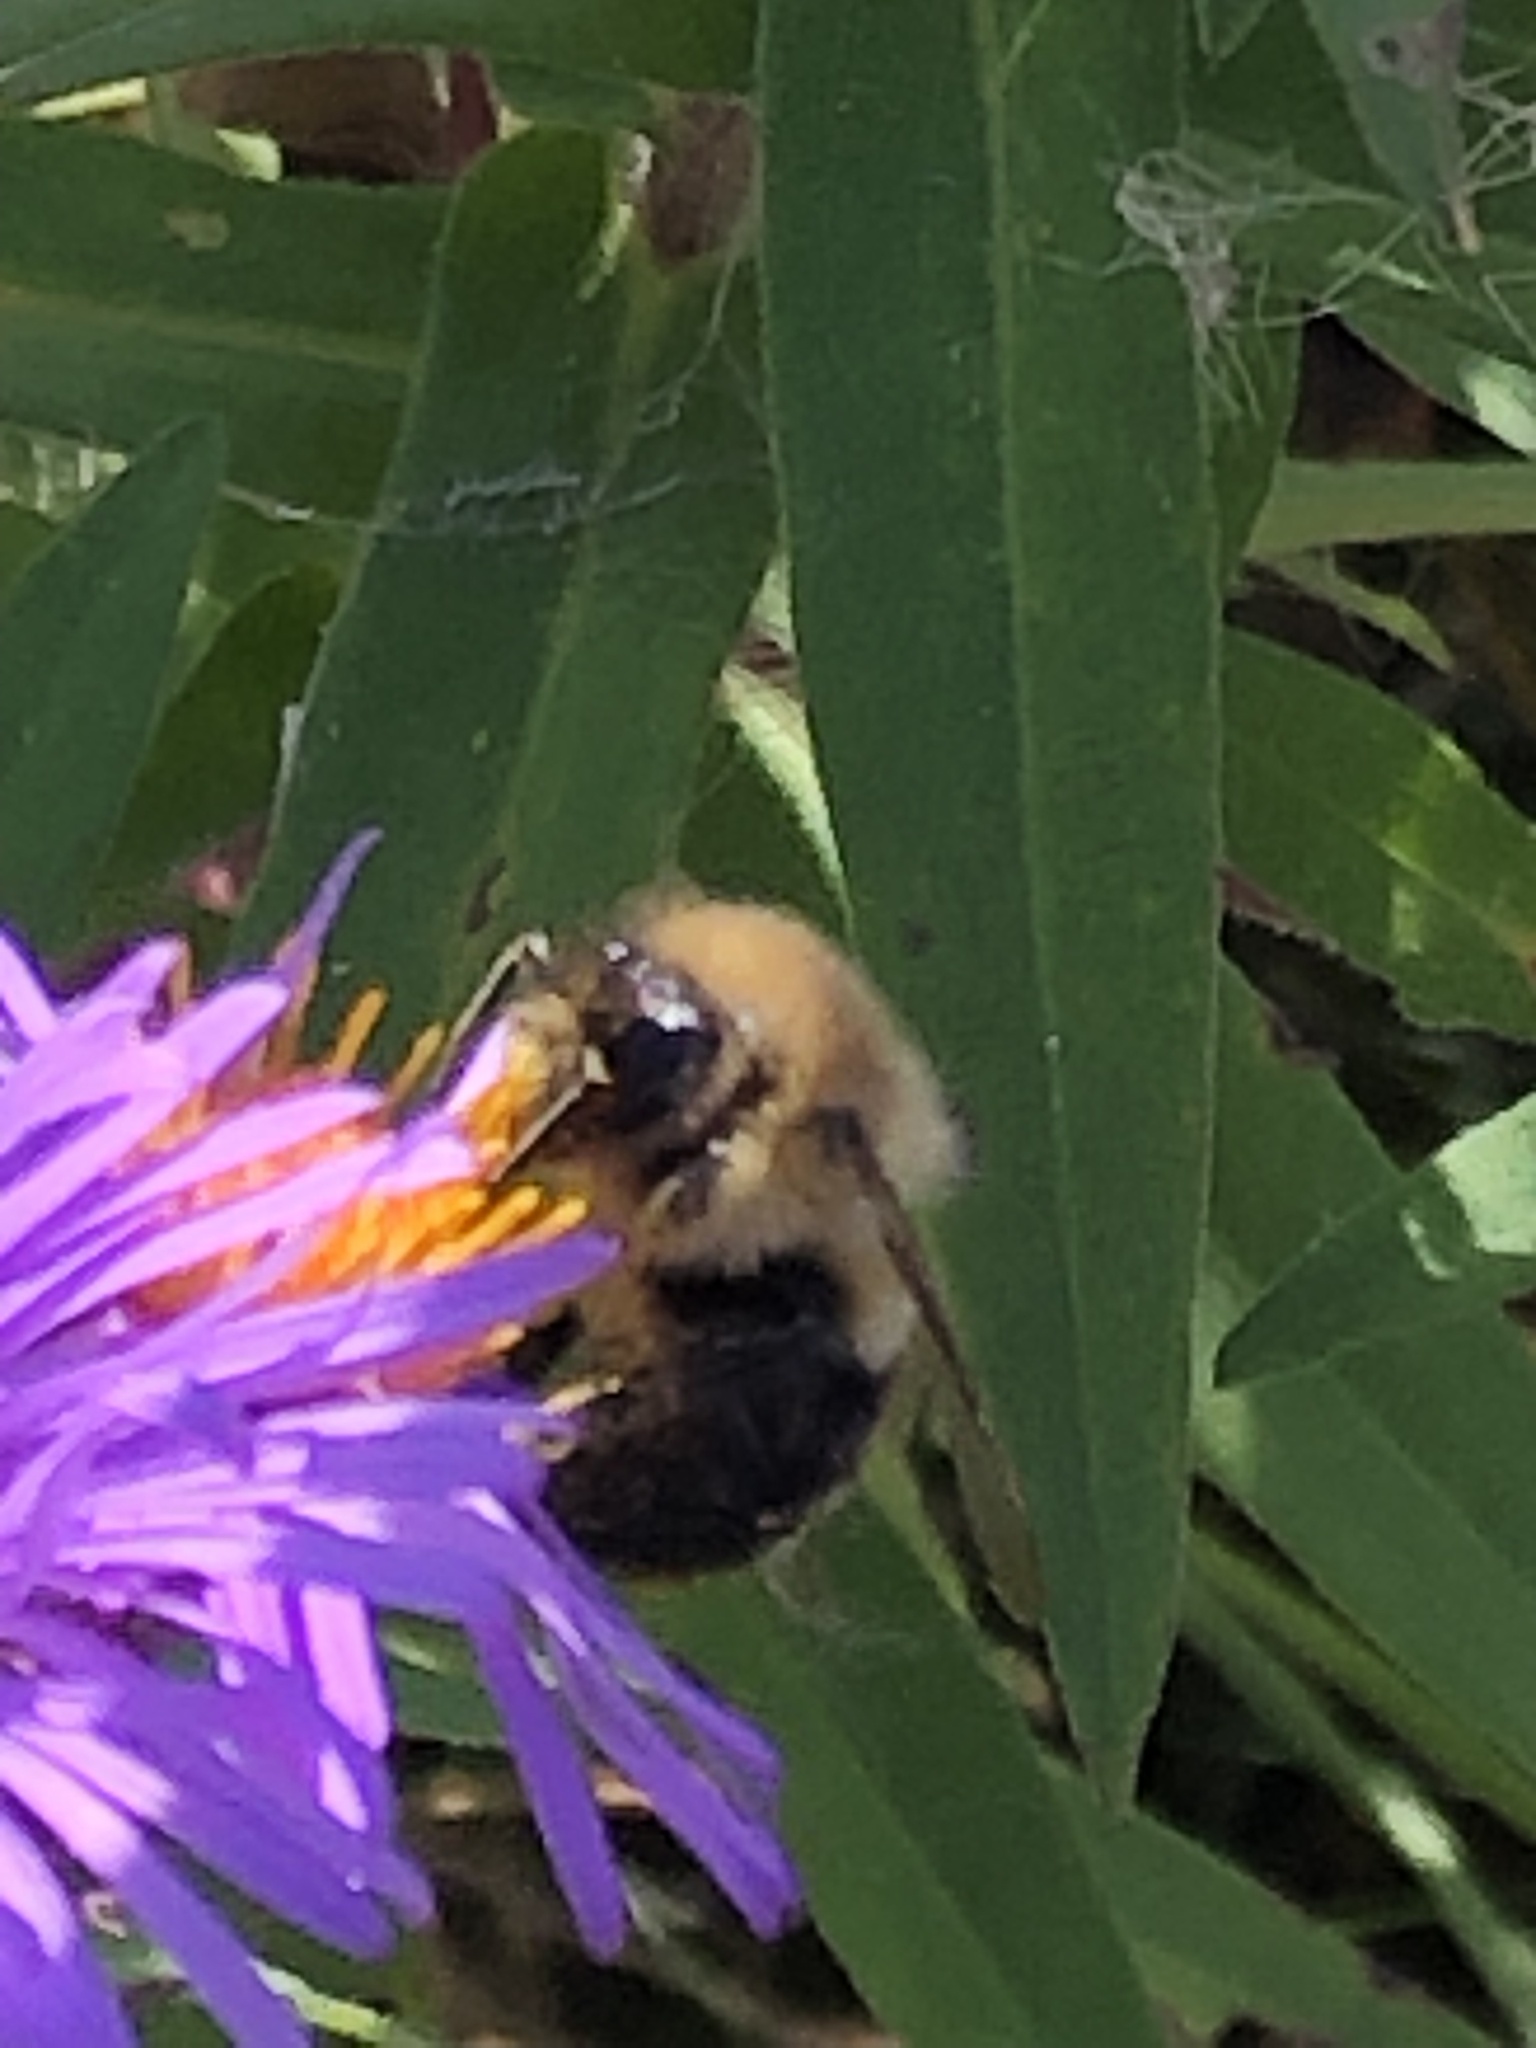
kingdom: Animalia
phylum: Arthropoda
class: Insecta
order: Hymenoptera
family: Apidae
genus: Bombus
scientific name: Bombus impatiens
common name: Common eastern bumble bee
